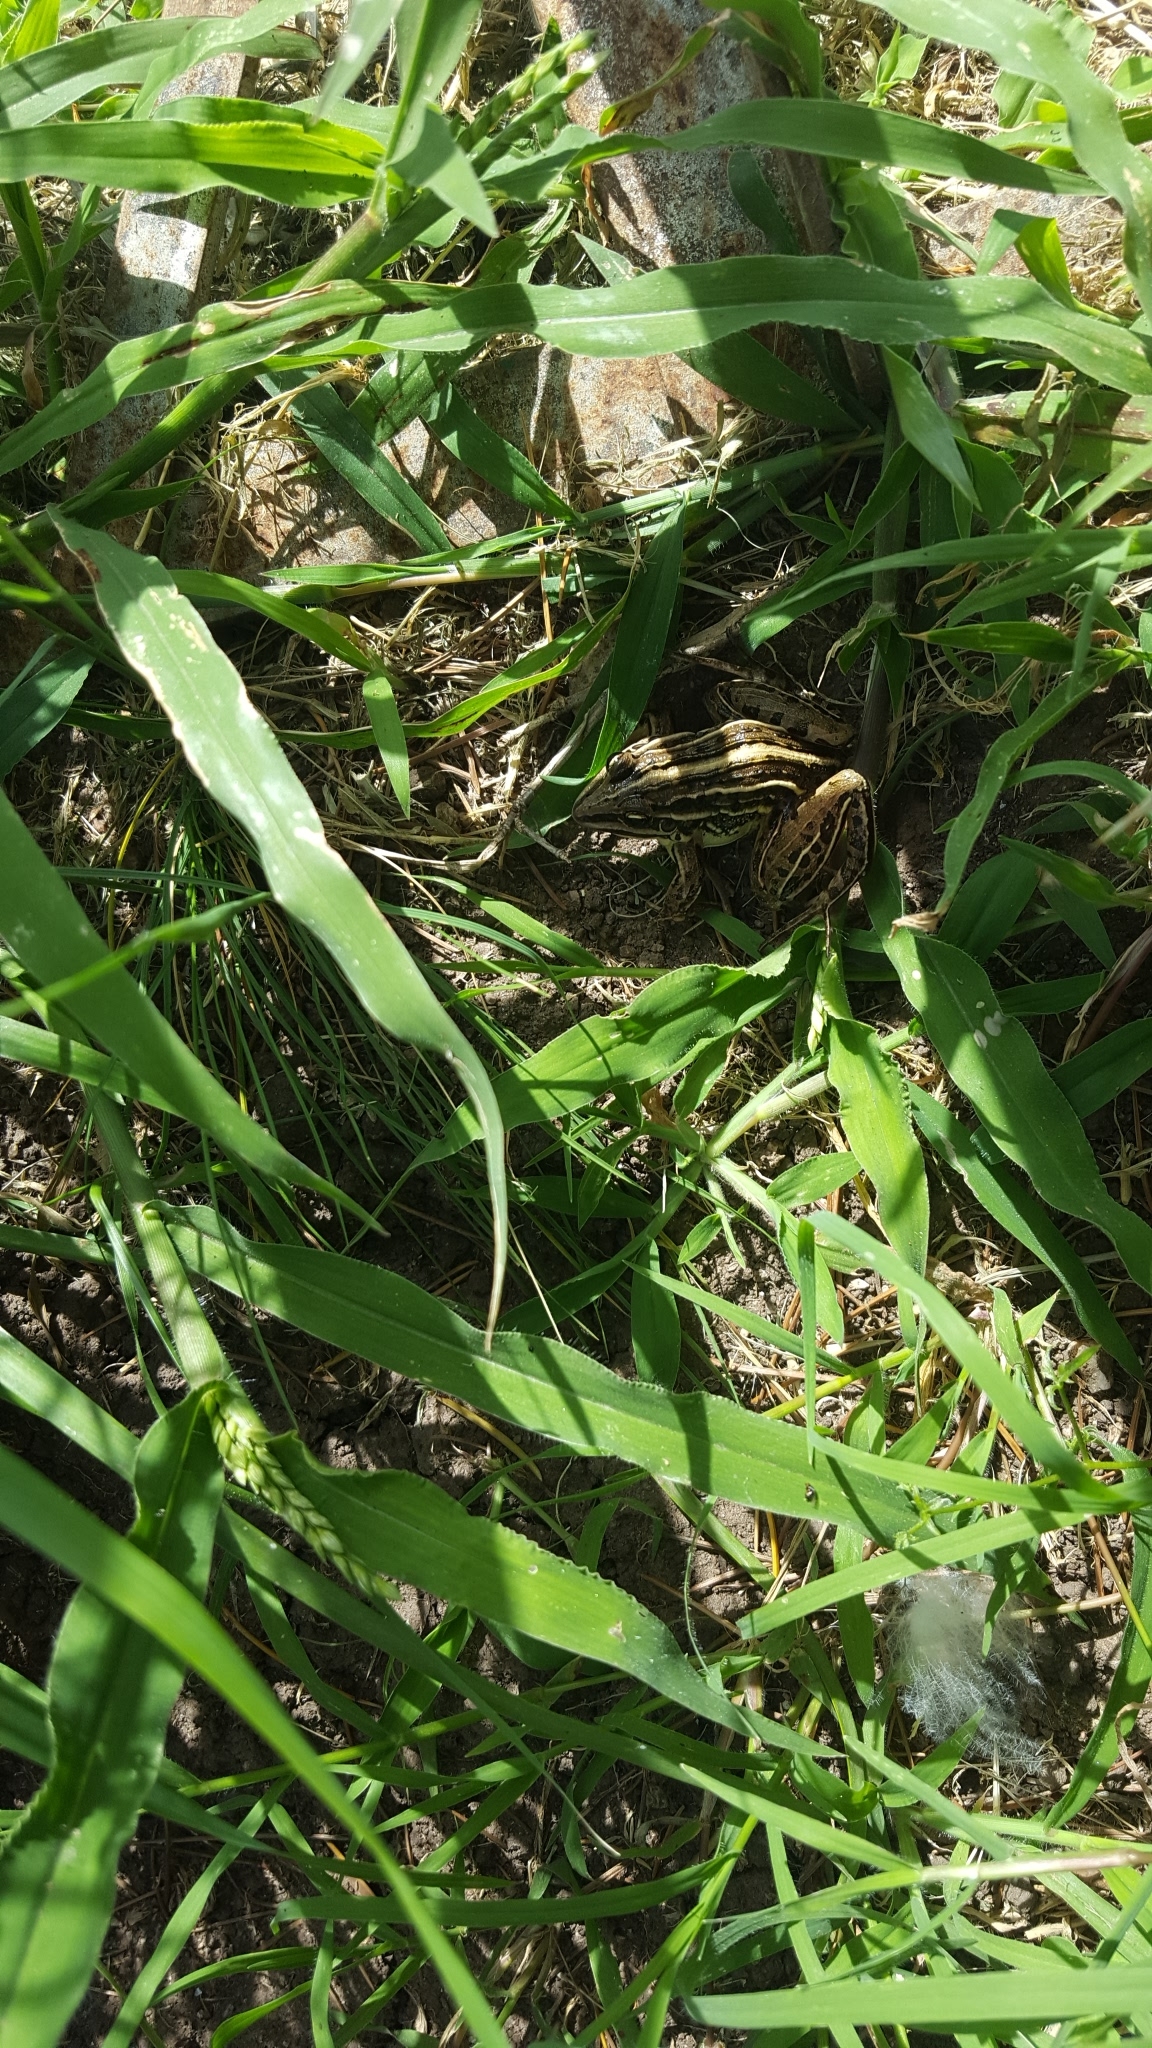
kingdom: Animalia
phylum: Chordata
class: Amphibia
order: Anura
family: Leptodactylidae
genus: Leptodactylus
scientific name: Leptodactylus gracilis
